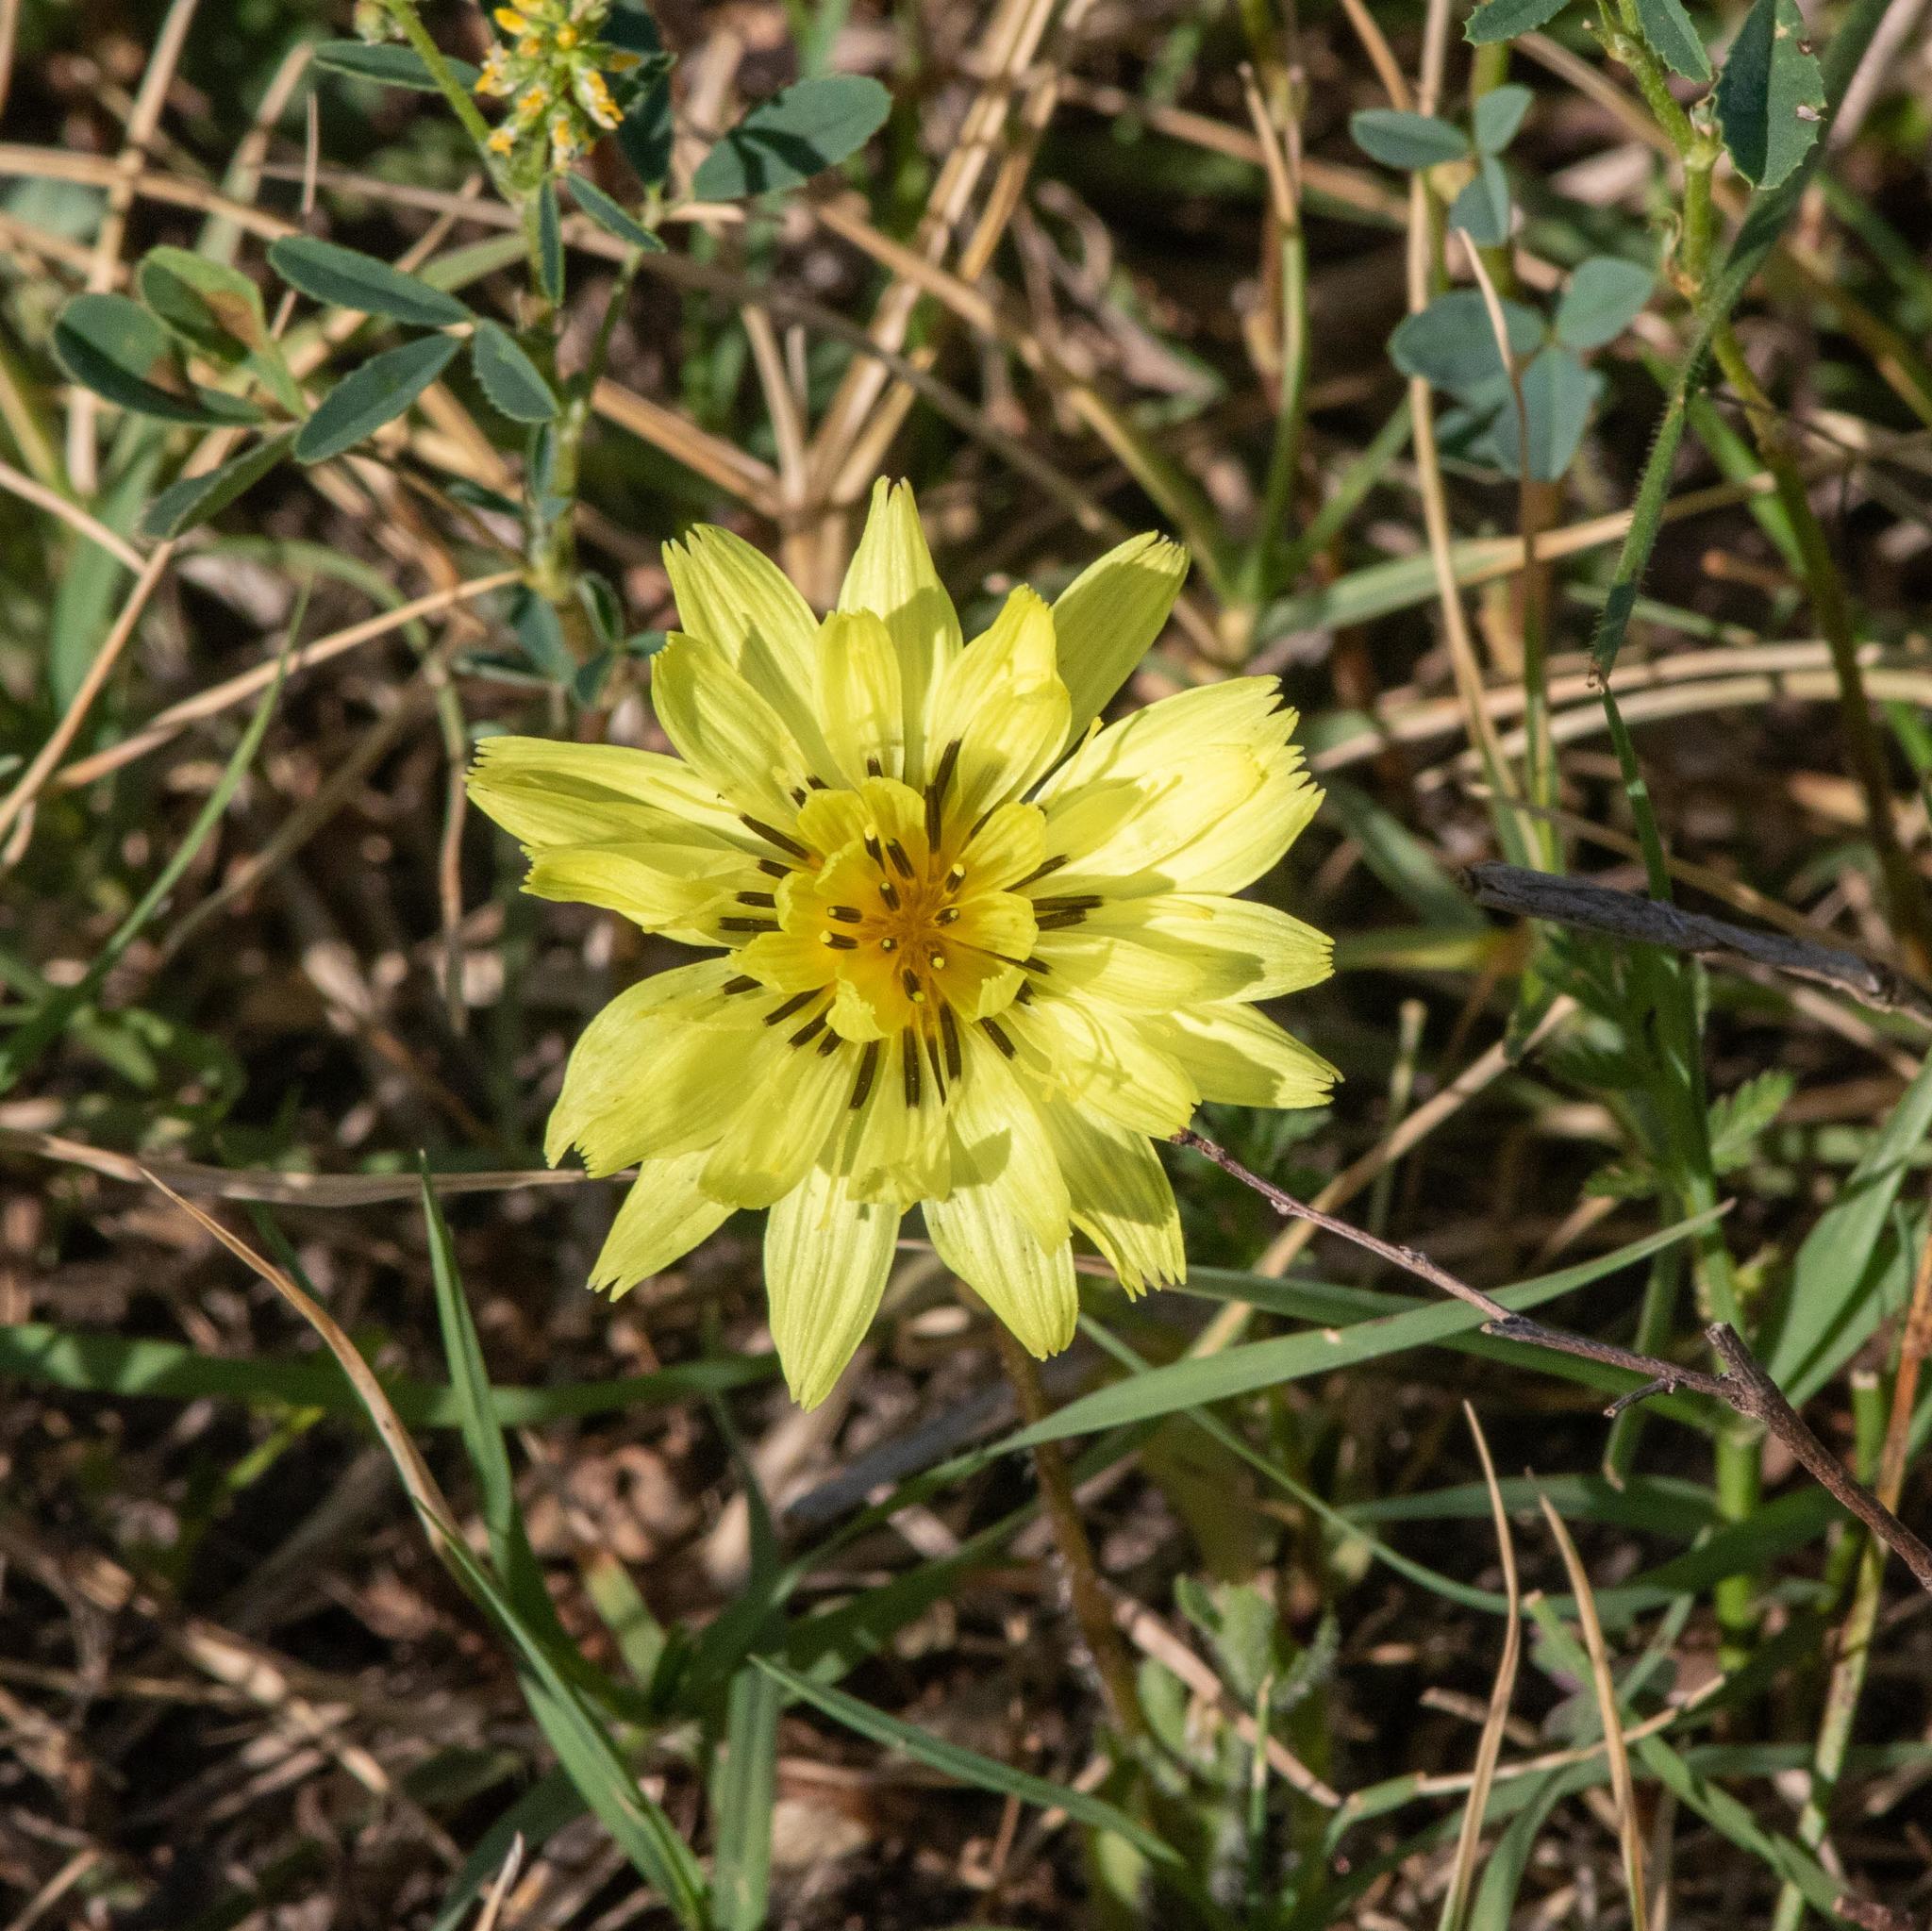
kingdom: Plantae
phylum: Tracheophyta
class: Magnoliopsida
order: Asterales
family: Asteraceae
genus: Pyrrhopappus
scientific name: Pyrrhopappus pauciflorus
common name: Texas false dandelion
